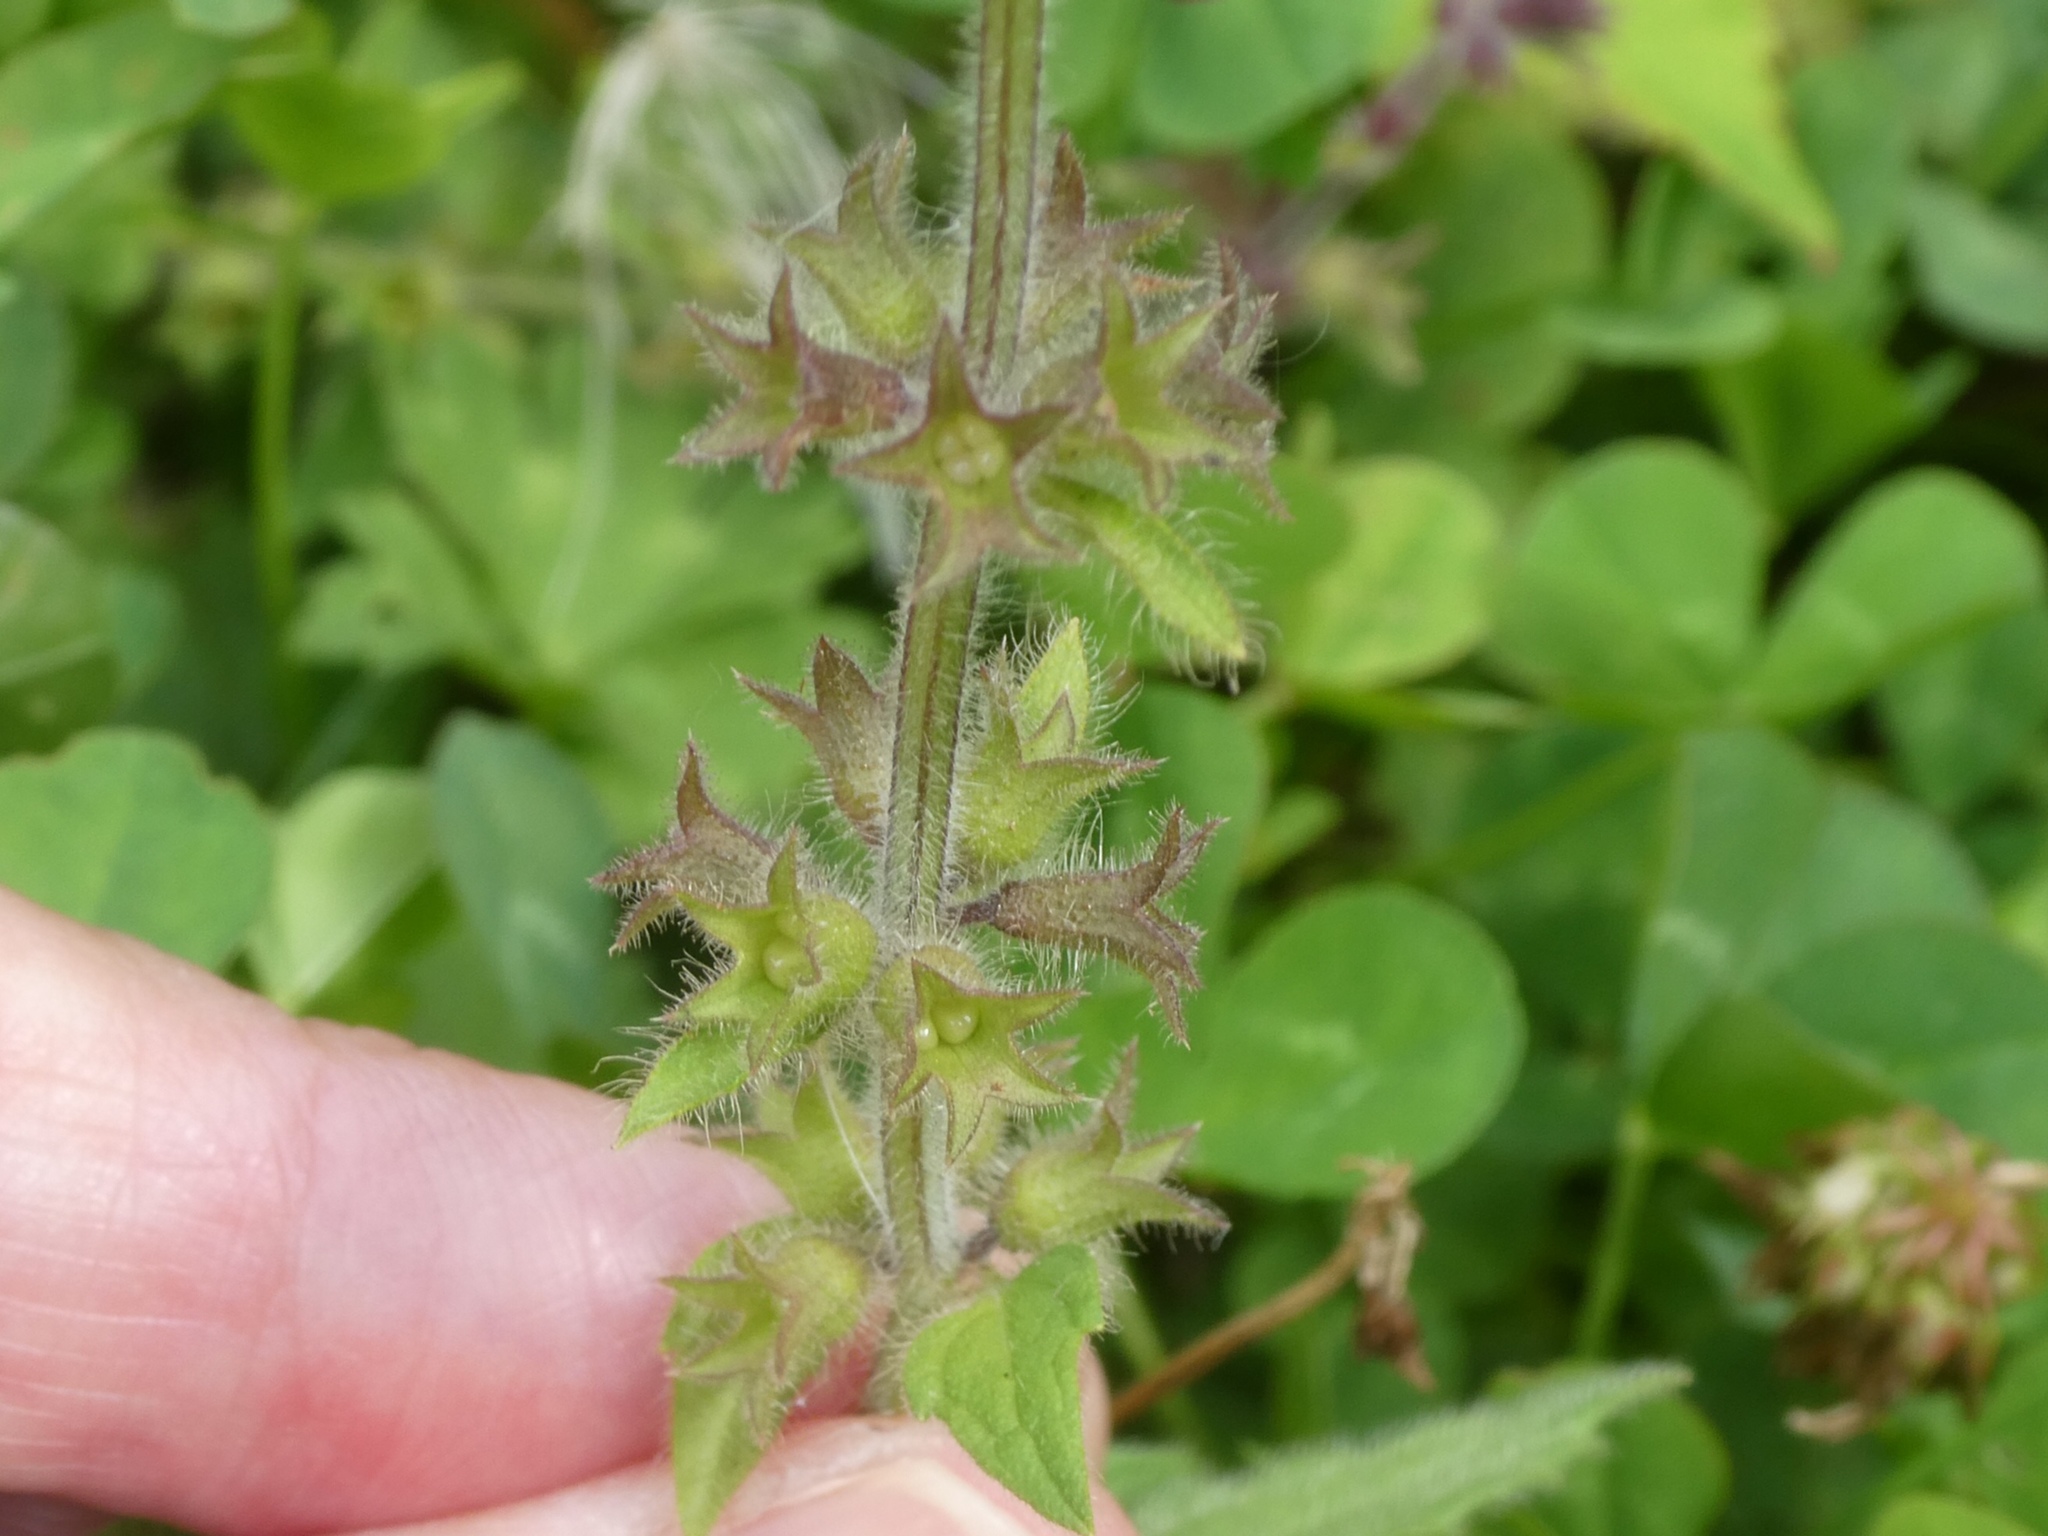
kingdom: Plantae
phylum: Tracheophyta
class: Magnoliopsida
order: Lamiales
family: Lamiaceae
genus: Stachys
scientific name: Stachys sylvatica
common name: Hedge woundwort
